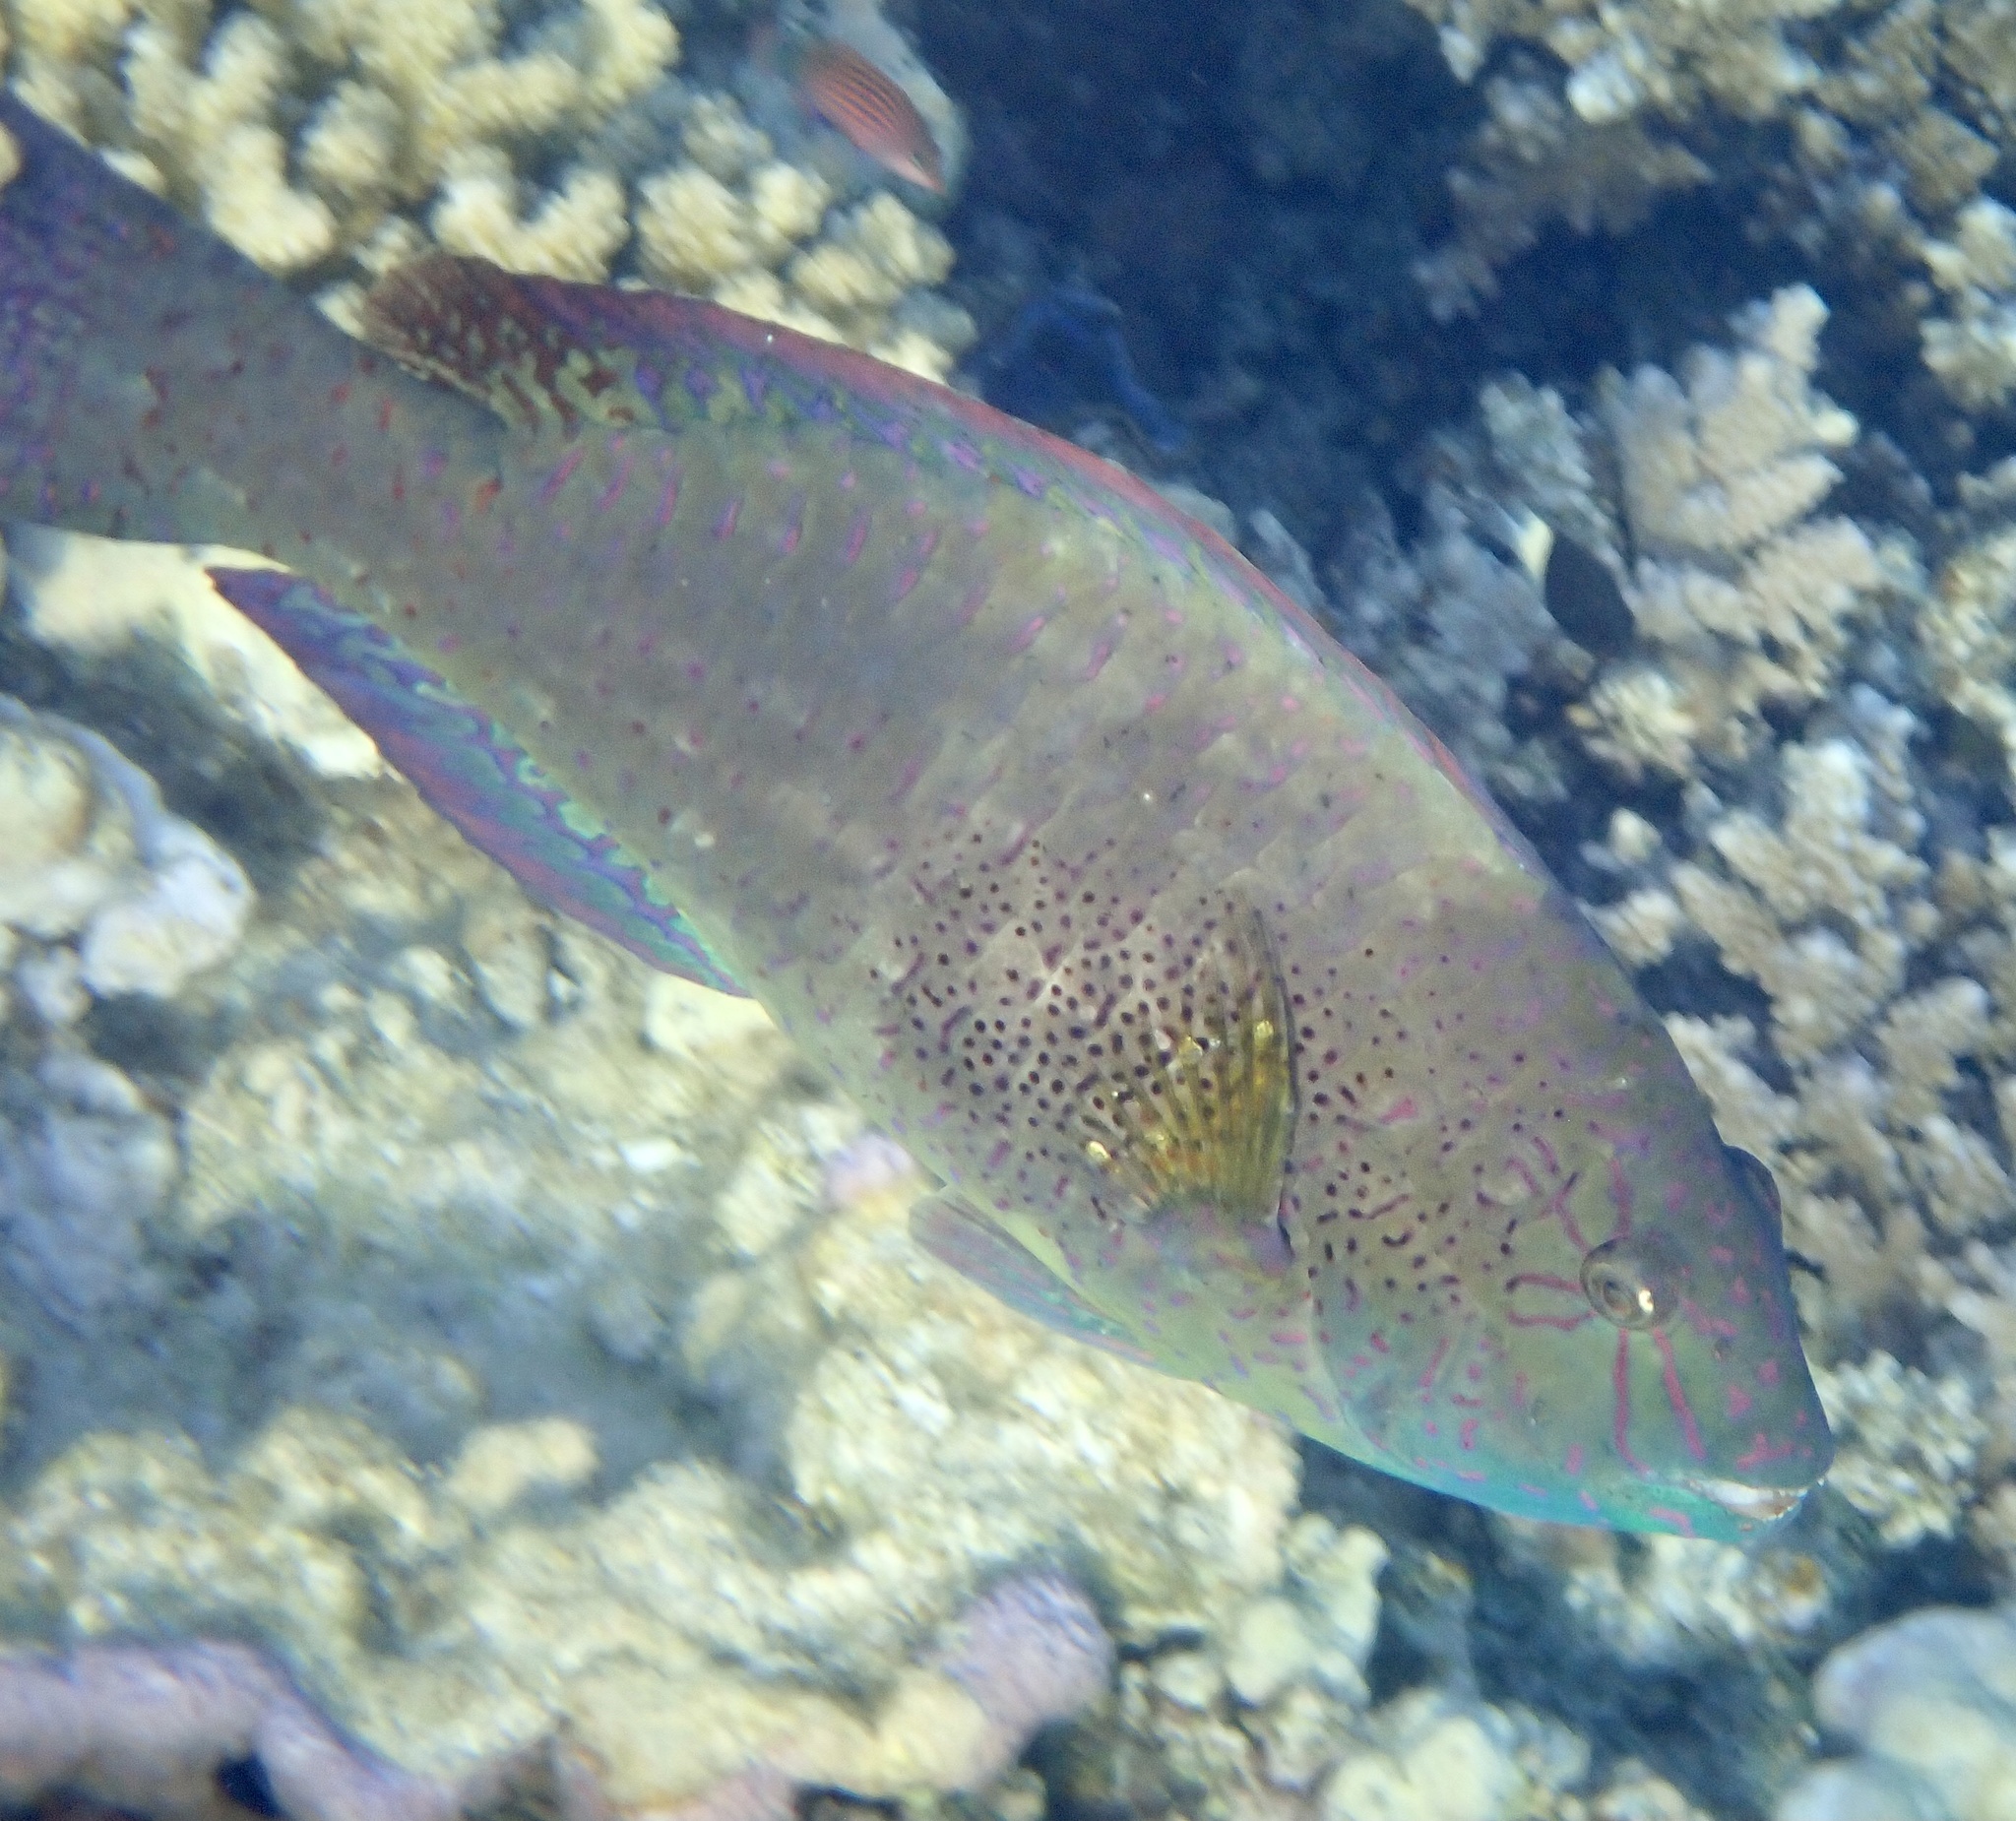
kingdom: Animalia
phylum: Chordata
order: Perciformes
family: Scaridae
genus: Calotomus
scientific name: Calotomus viridescens
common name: Dotted parrotfish
